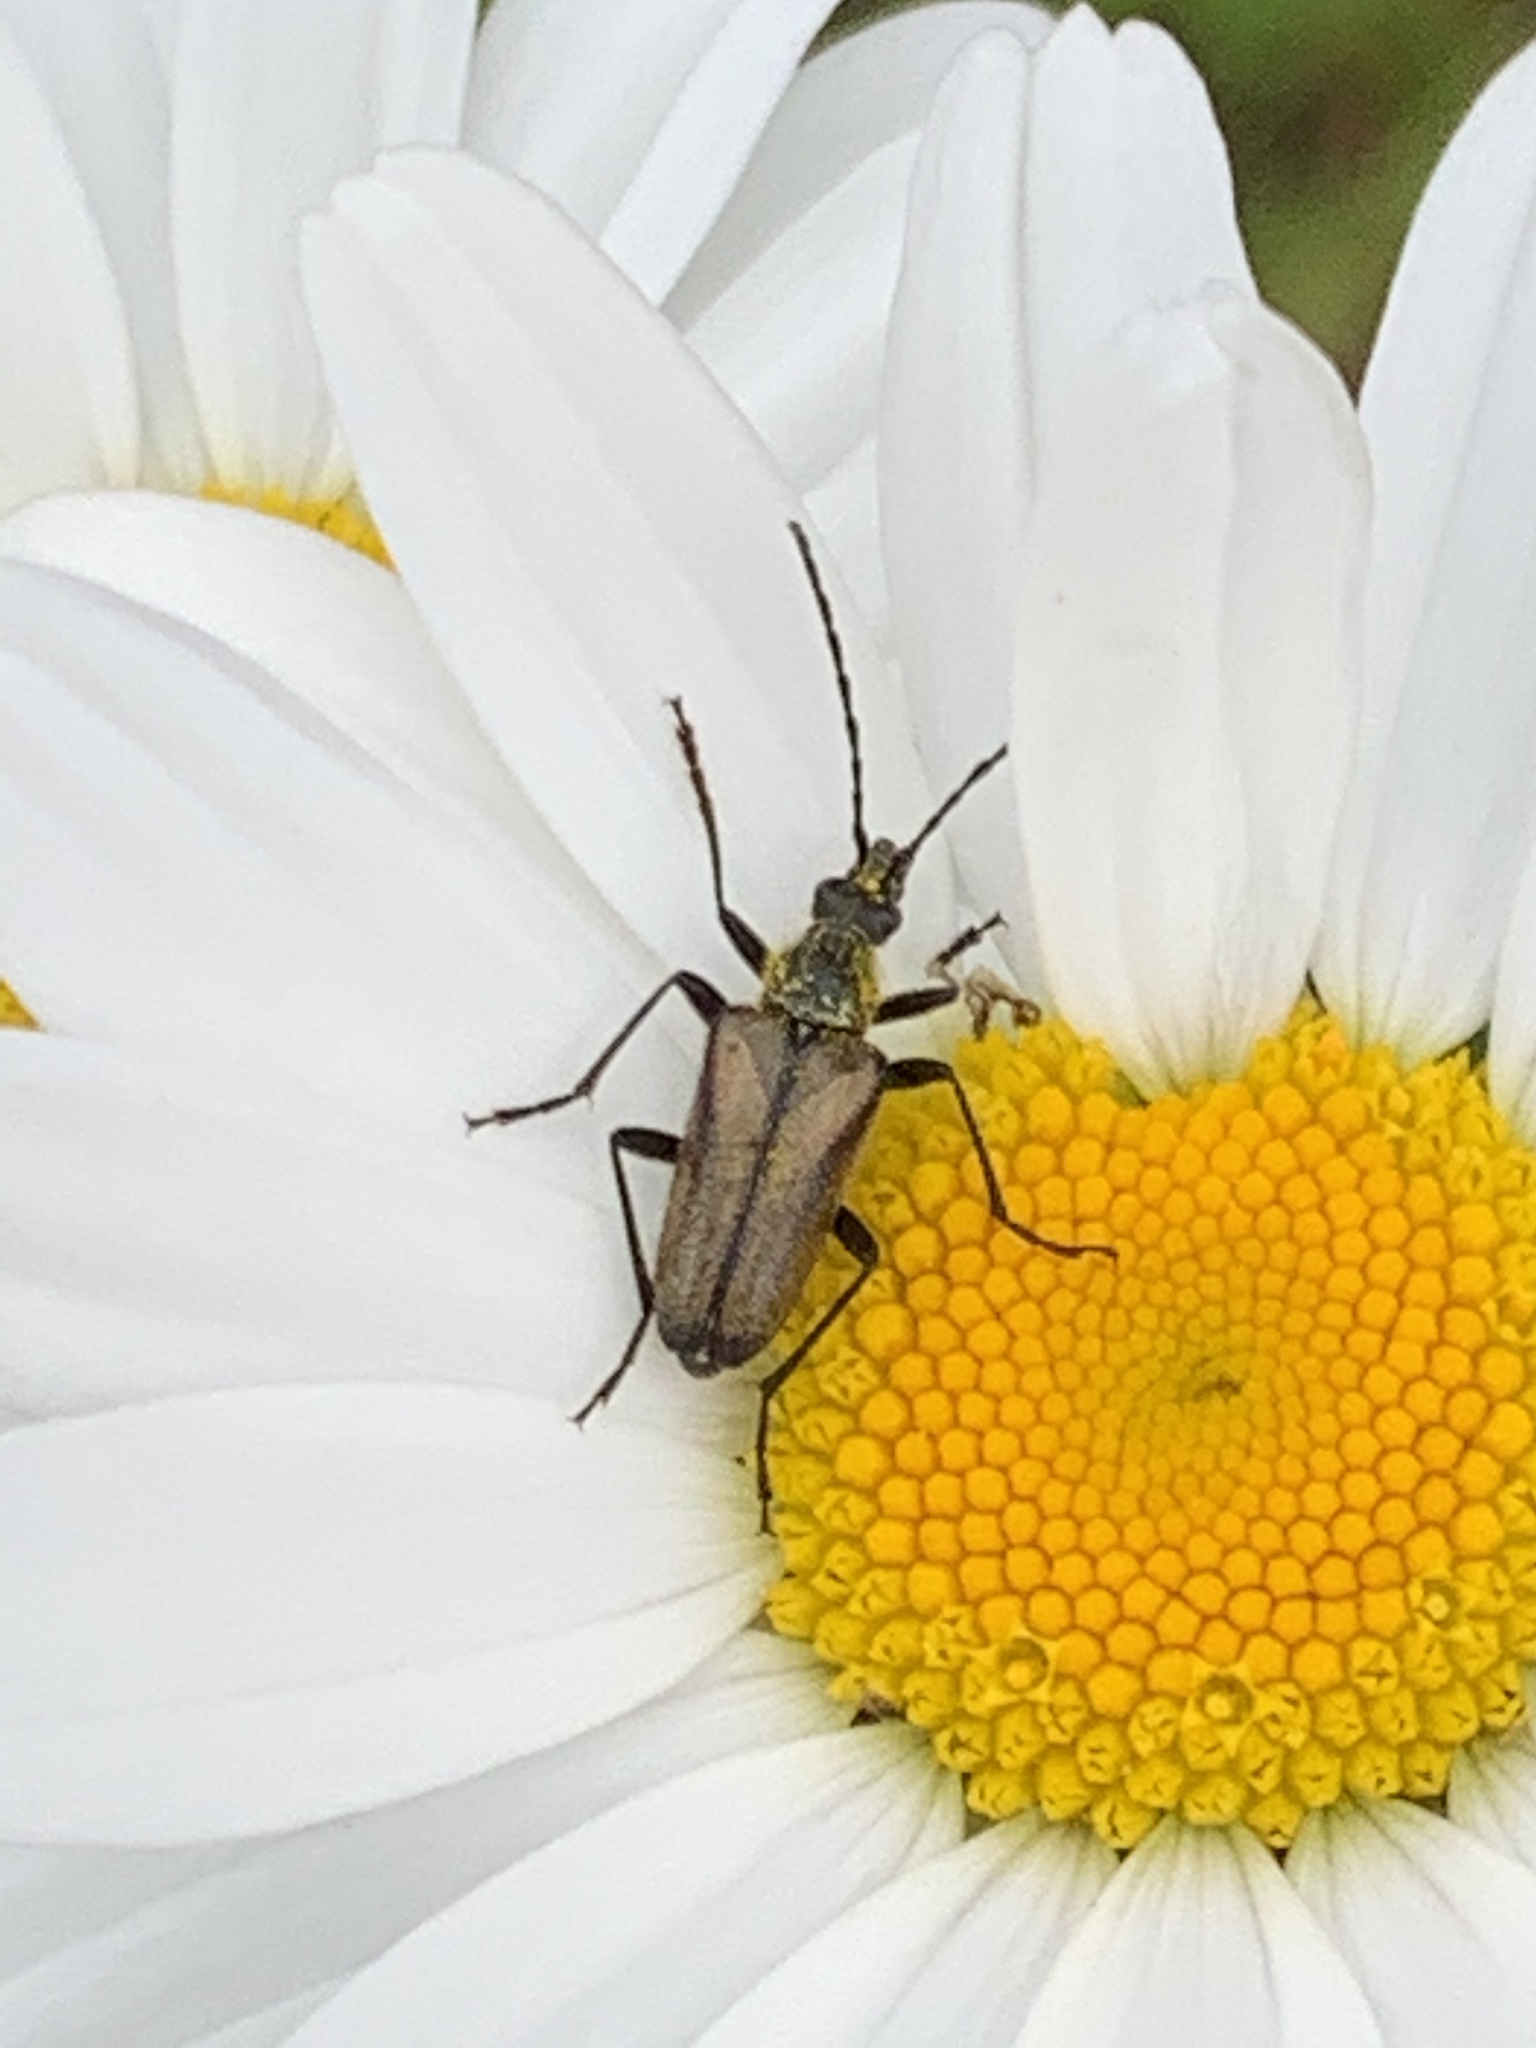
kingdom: Animalia
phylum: Arthropoda
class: Insecta
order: Coleoptera
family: Cerambycidae
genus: Gnathacmaeops
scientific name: Gnathacmaeops pratensis
